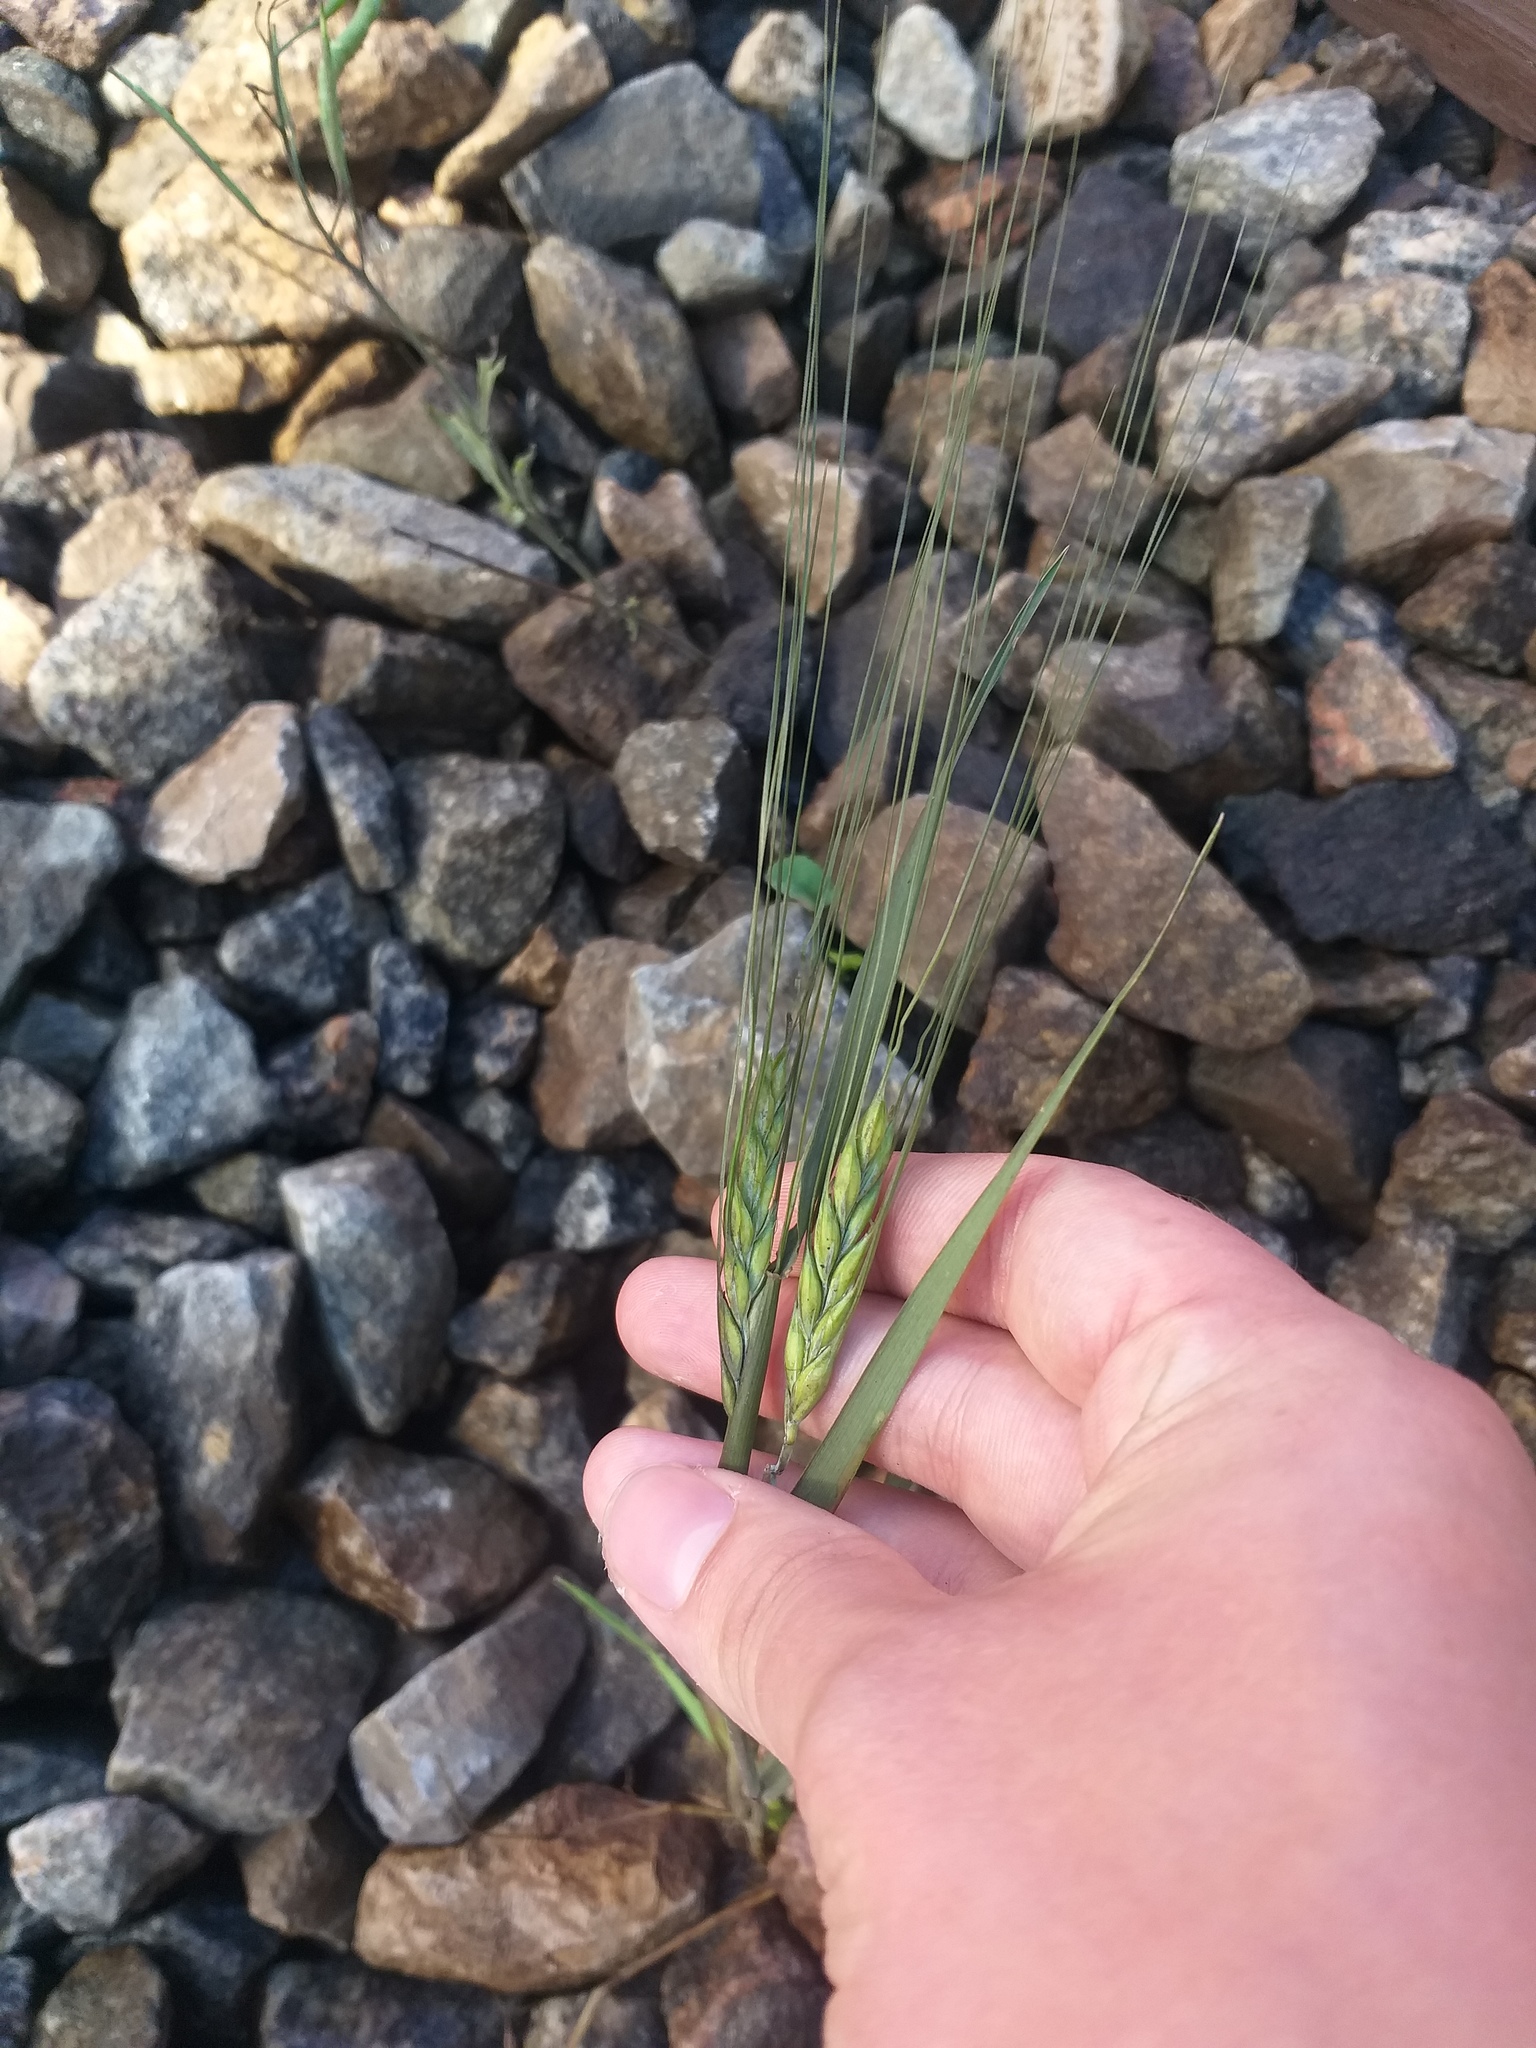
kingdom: Plantae
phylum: Tracheophyta
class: Liliopsida
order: Poales
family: Poaceae
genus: Hordeum
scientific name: Hordeum vulgare
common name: Common barley
